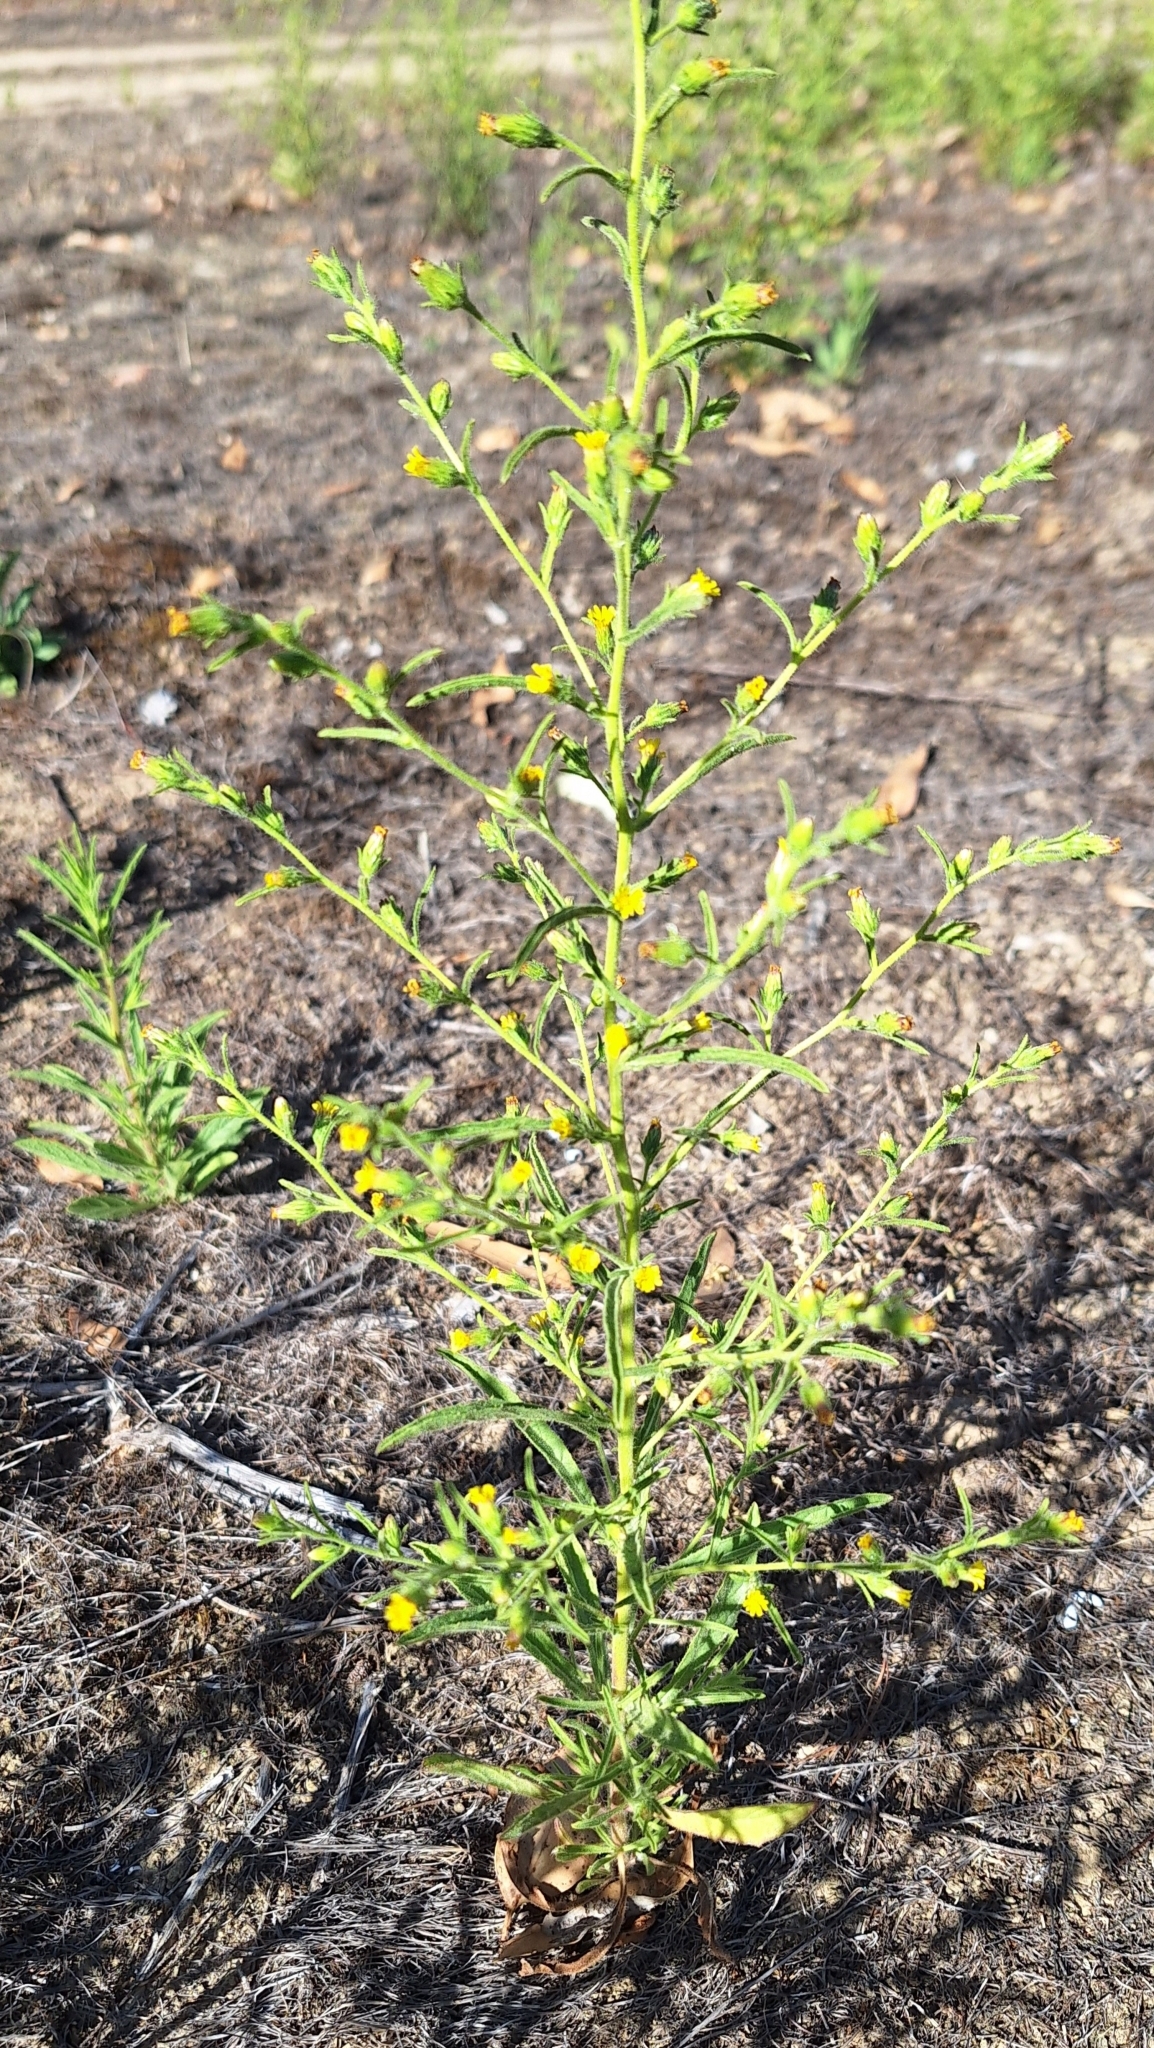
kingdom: Plantae
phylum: Tracheophyta
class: Magnoliopsida
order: Asterales
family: Asteraceae
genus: Dittrichia
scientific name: Dittrichia graveolens
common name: Stinking fleabane
